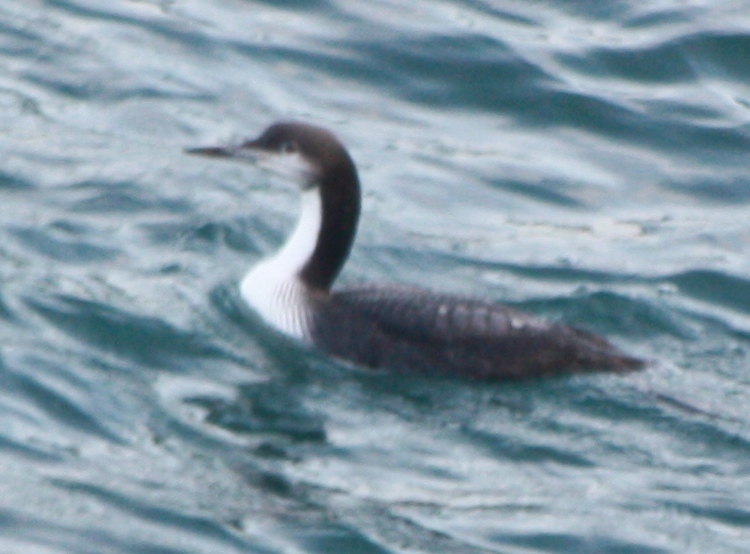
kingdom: Animalia
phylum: Chordata
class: Aves
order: Gaviiformes
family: Gaviidae
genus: Gavia
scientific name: Gavia pacifica
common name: Pacific loon
